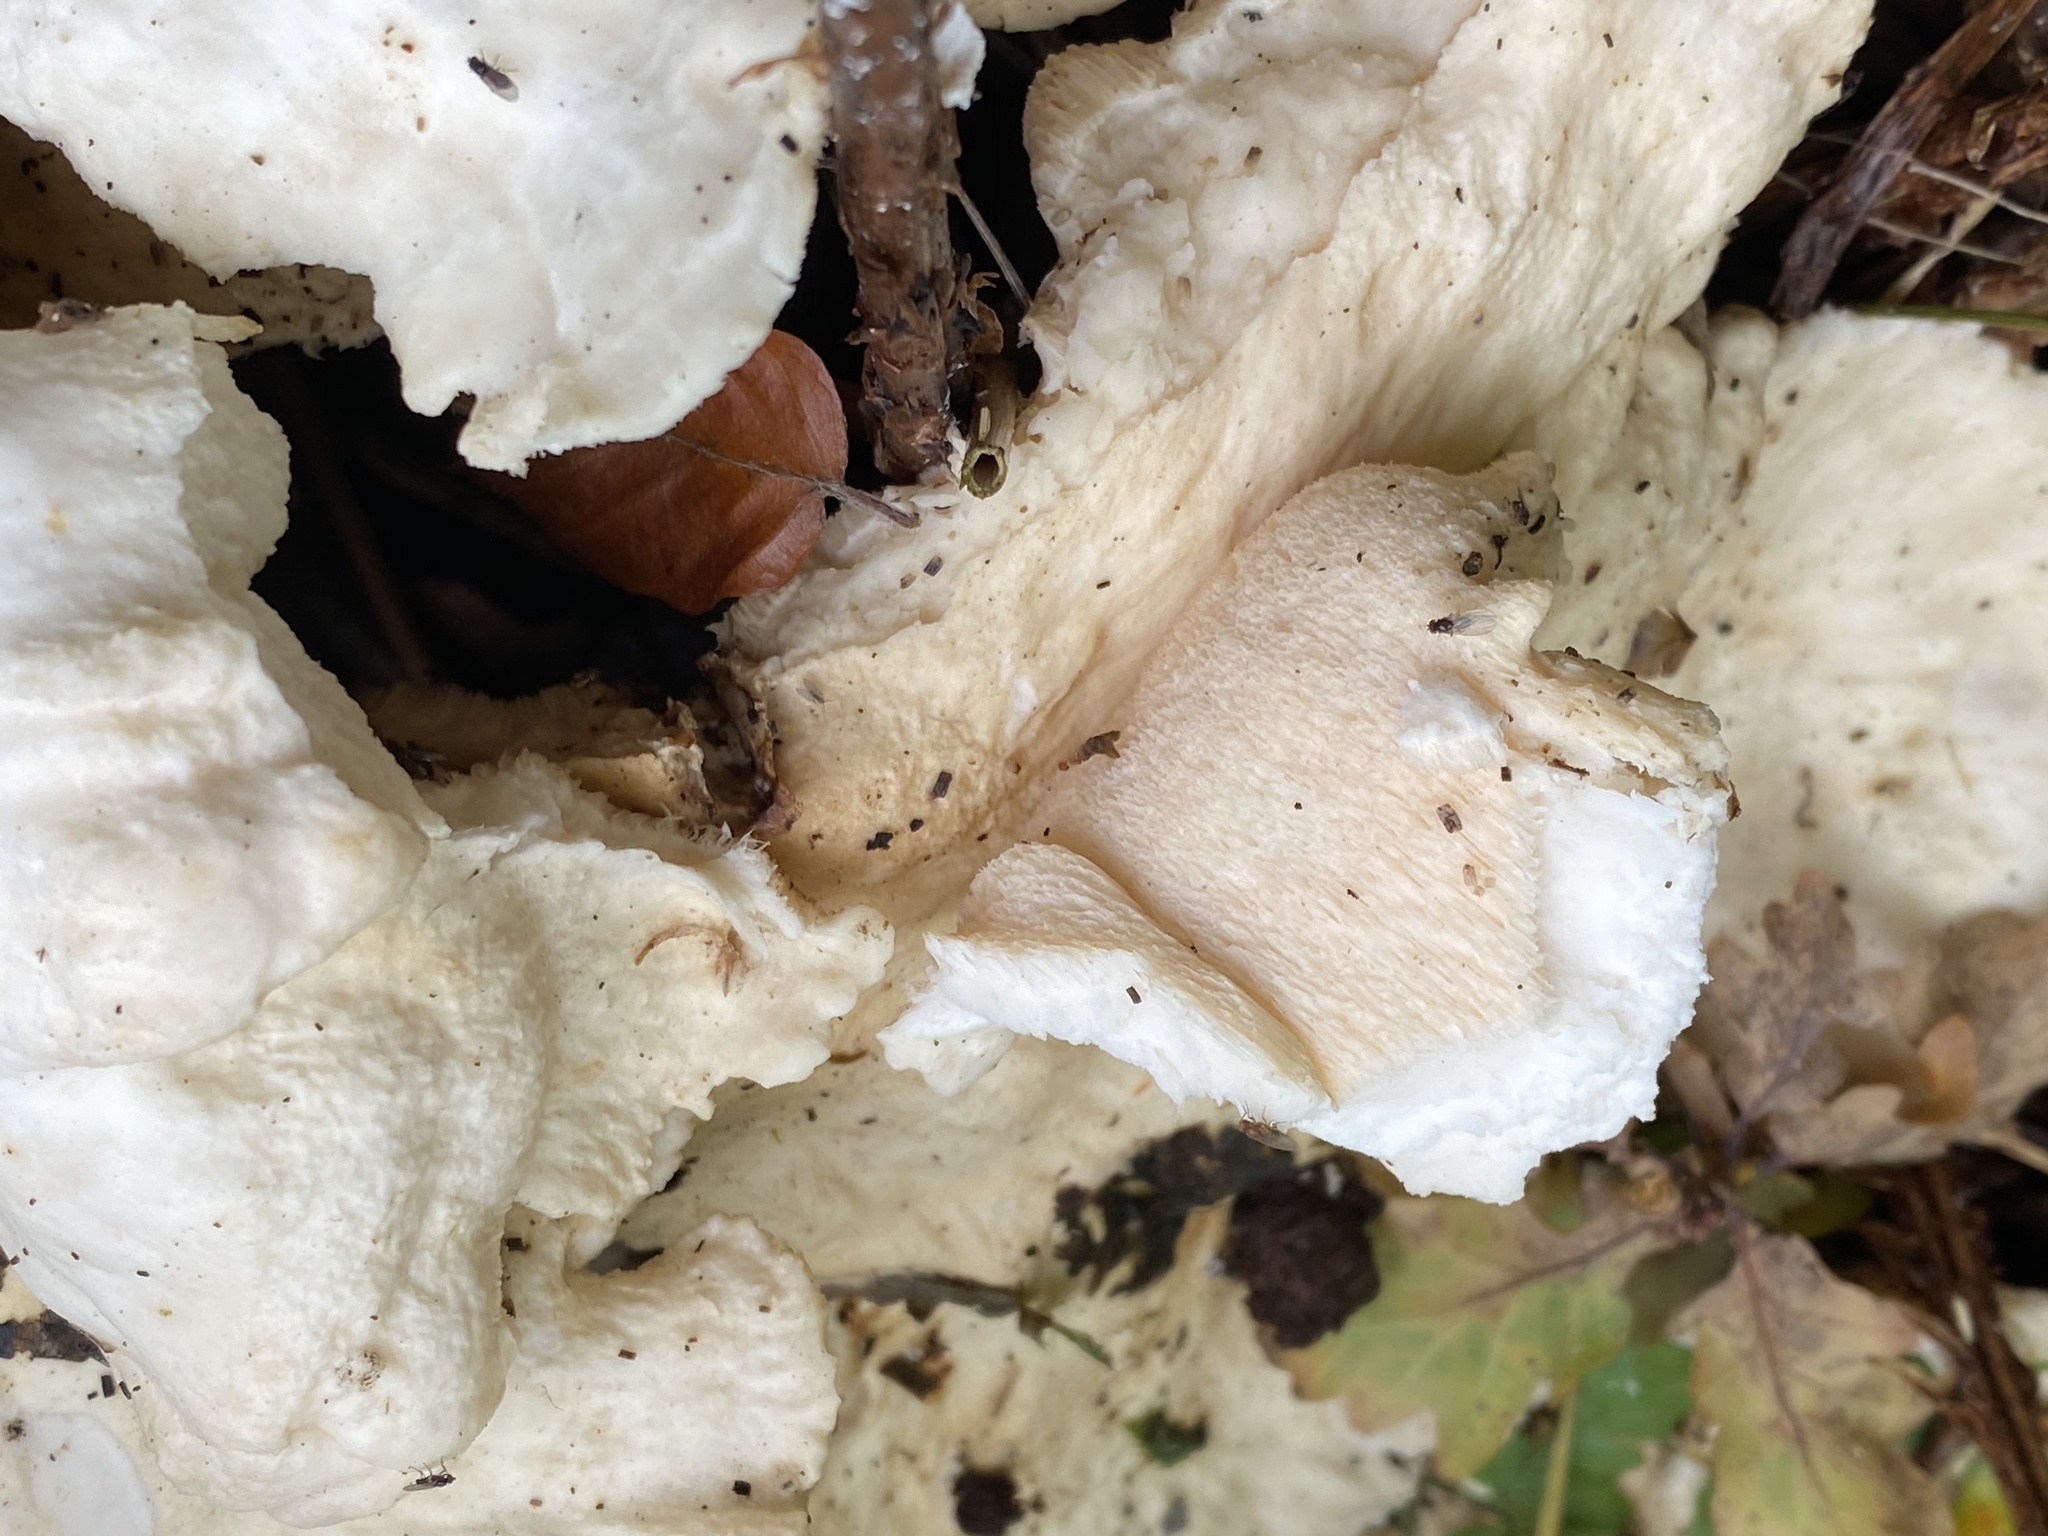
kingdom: Fungi
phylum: Basidiomycota
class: Agaricomycetes
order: Polyporales
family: Laetiporaceae
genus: Laetiporus
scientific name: Laetiporus sulphureus
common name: Chicken of the woods
